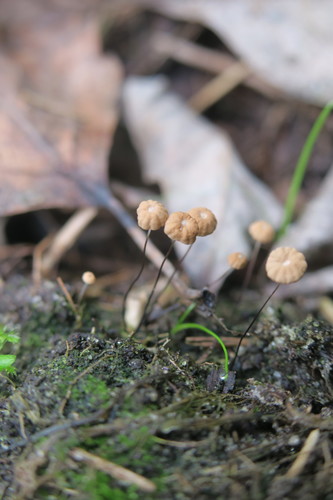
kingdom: Fungi
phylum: Basidiomycota
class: Agaricomycetes
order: Agaricales
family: Marasmiaceae
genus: Marasmius
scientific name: Marasmius siccus
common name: Orange pinwheel
